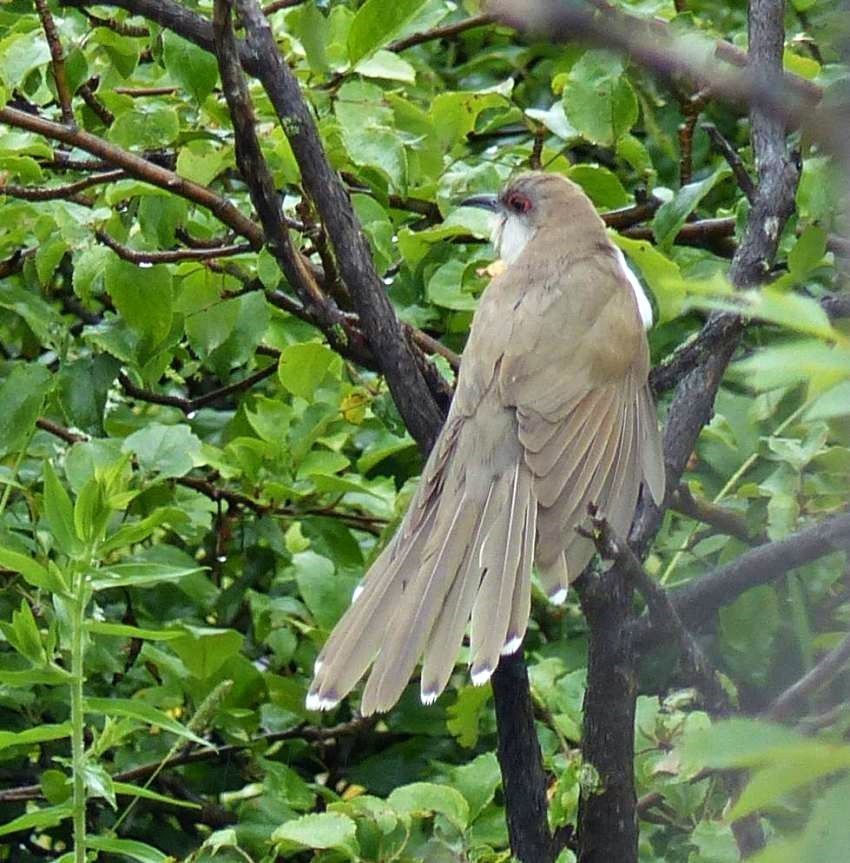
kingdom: Animalia
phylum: Chordata
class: Aves
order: Cuculiformes
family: Cuculidae
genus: Coccyzus
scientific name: Coccyzus erythropthalmus
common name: Black-billed cuckoo
